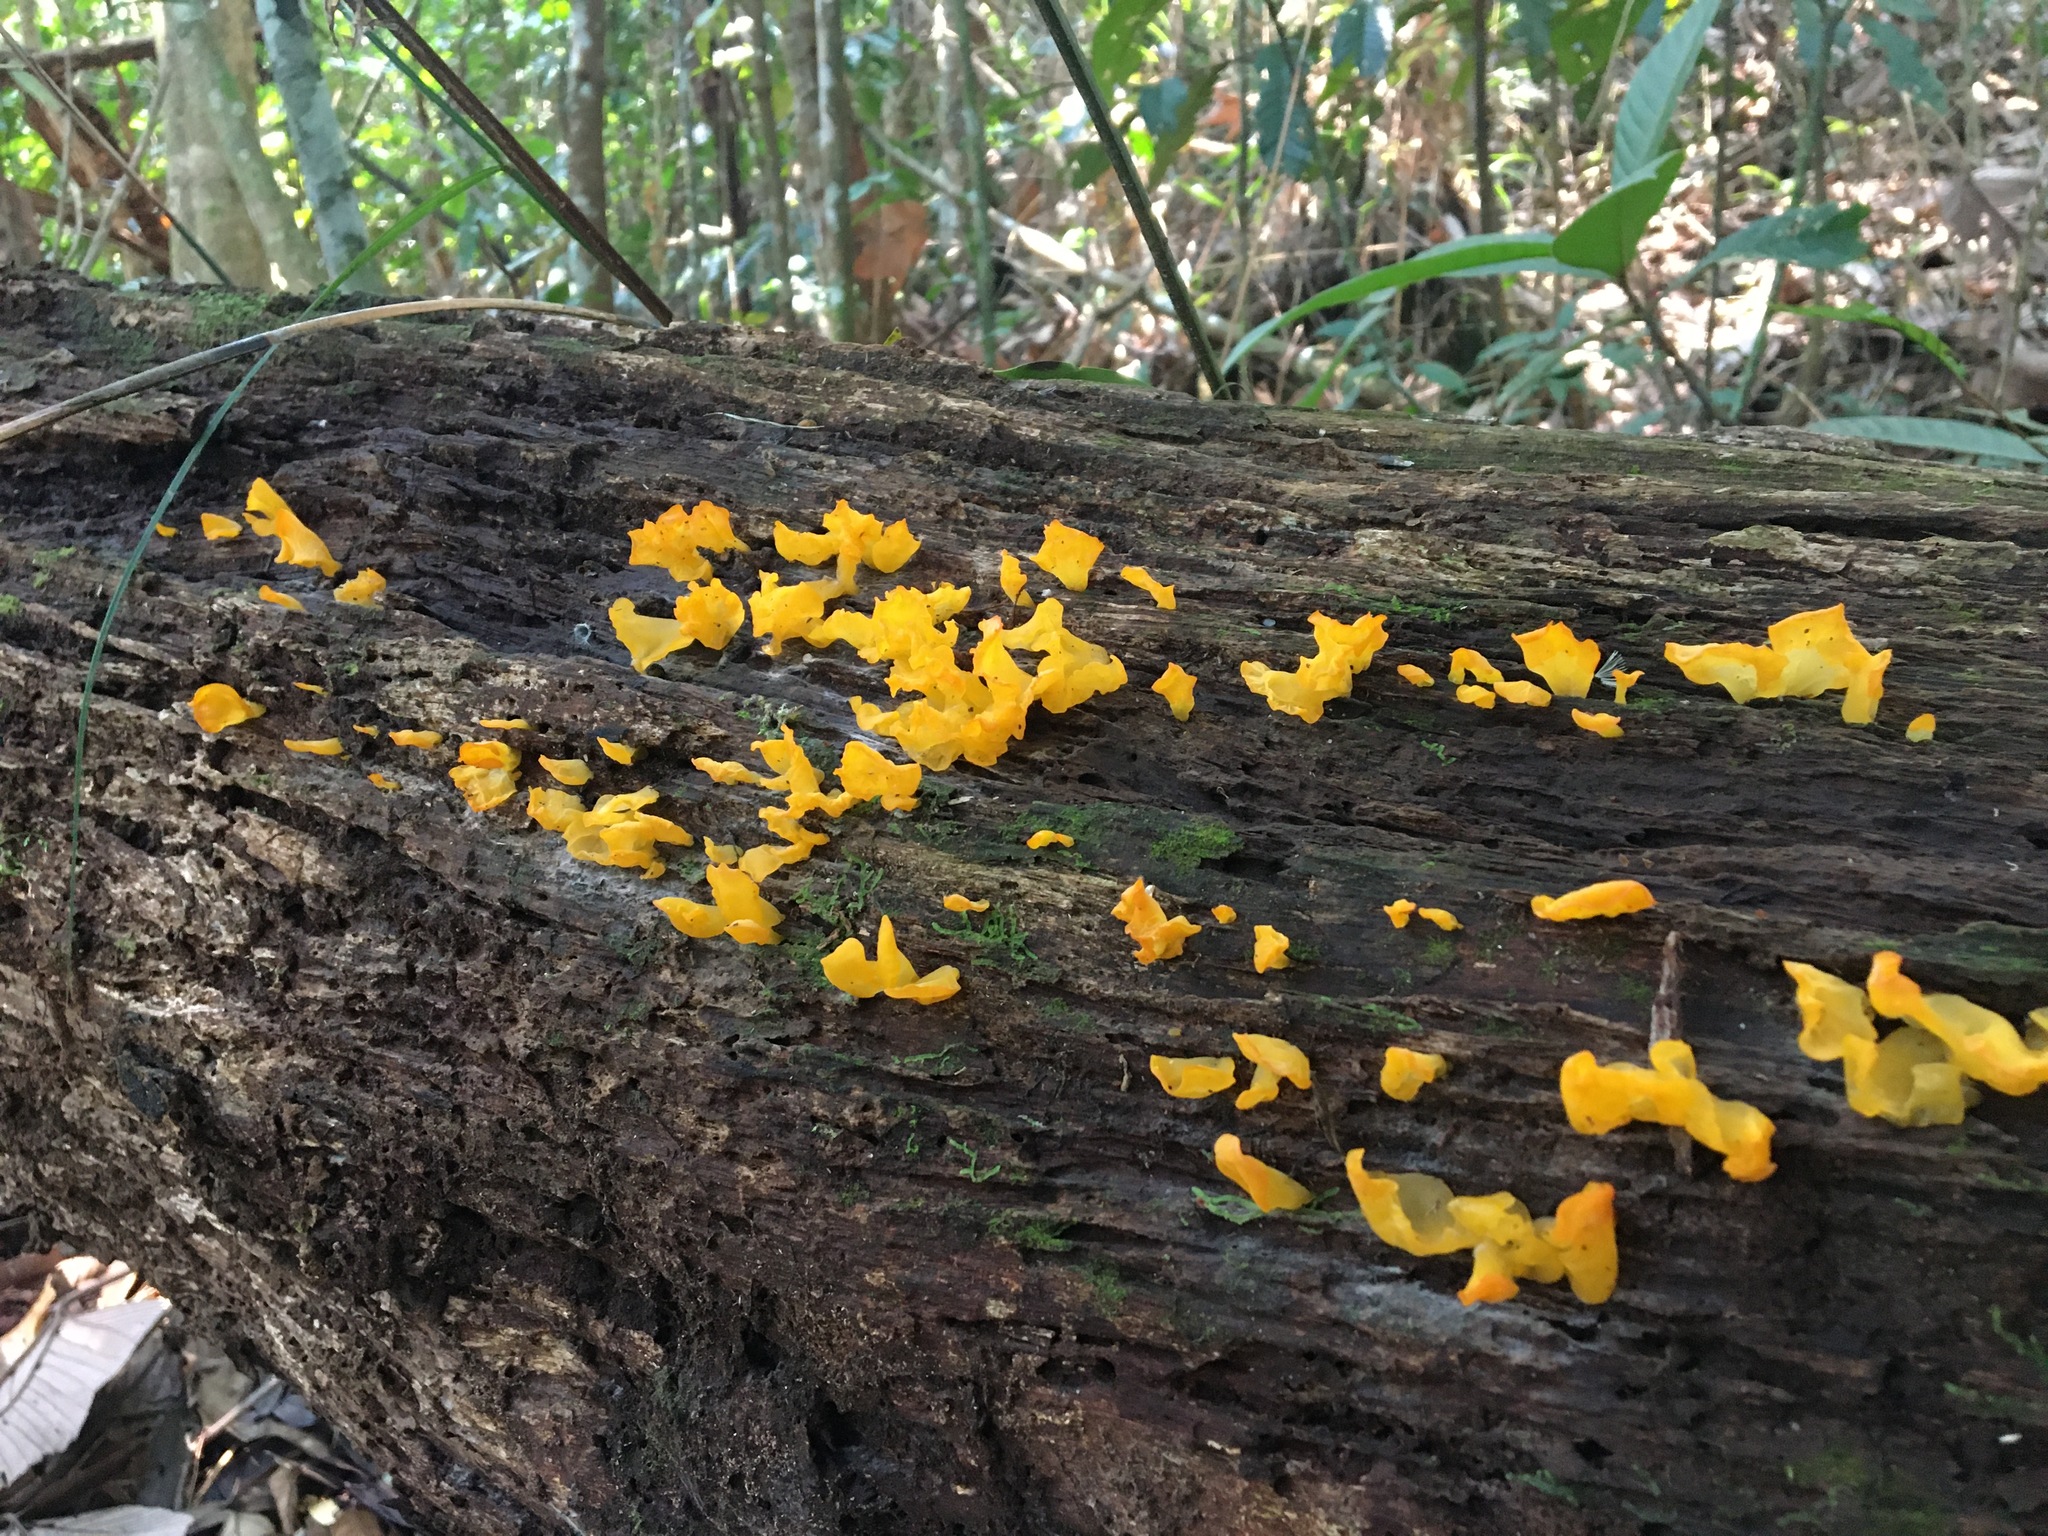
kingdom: Fungi
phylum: Basidiomycota
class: Dacrymycetes
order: Dacrymycetales
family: Dacrymycetaceae
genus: Dacrymyces
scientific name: Dacrymyces spathularius
